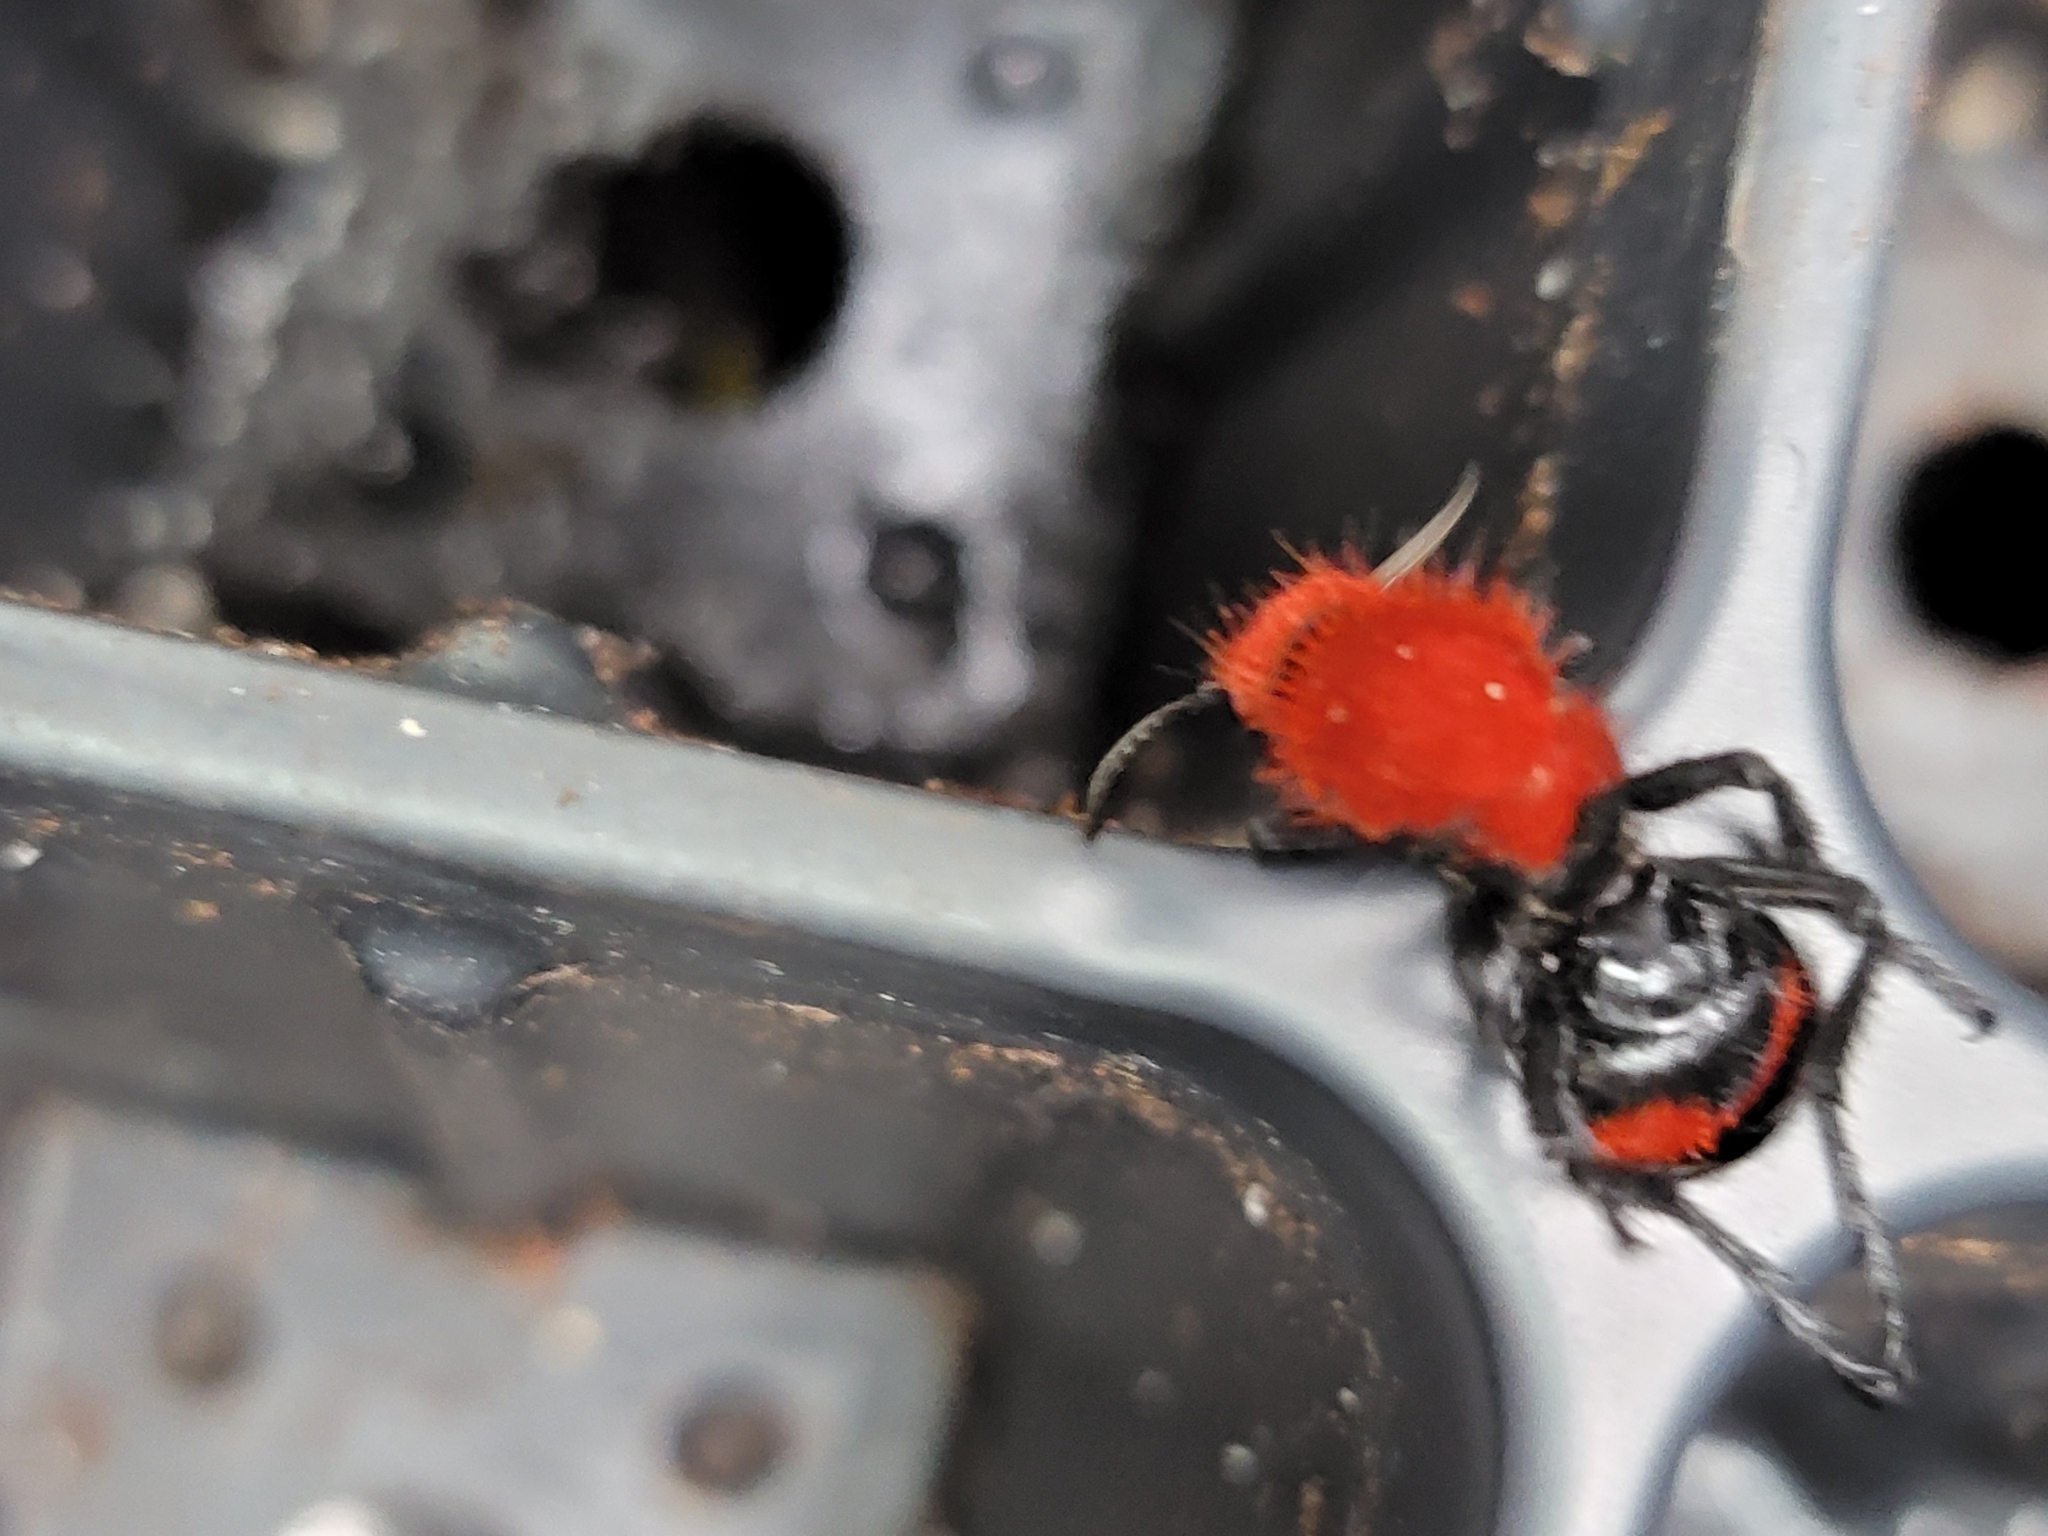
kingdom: Animalia
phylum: Arthropoda
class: Insecta
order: Hymenoptera
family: Mutillidae
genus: Dasymutilla
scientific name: Dasymutilla occidentalis
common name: Common eastern velvet ant
